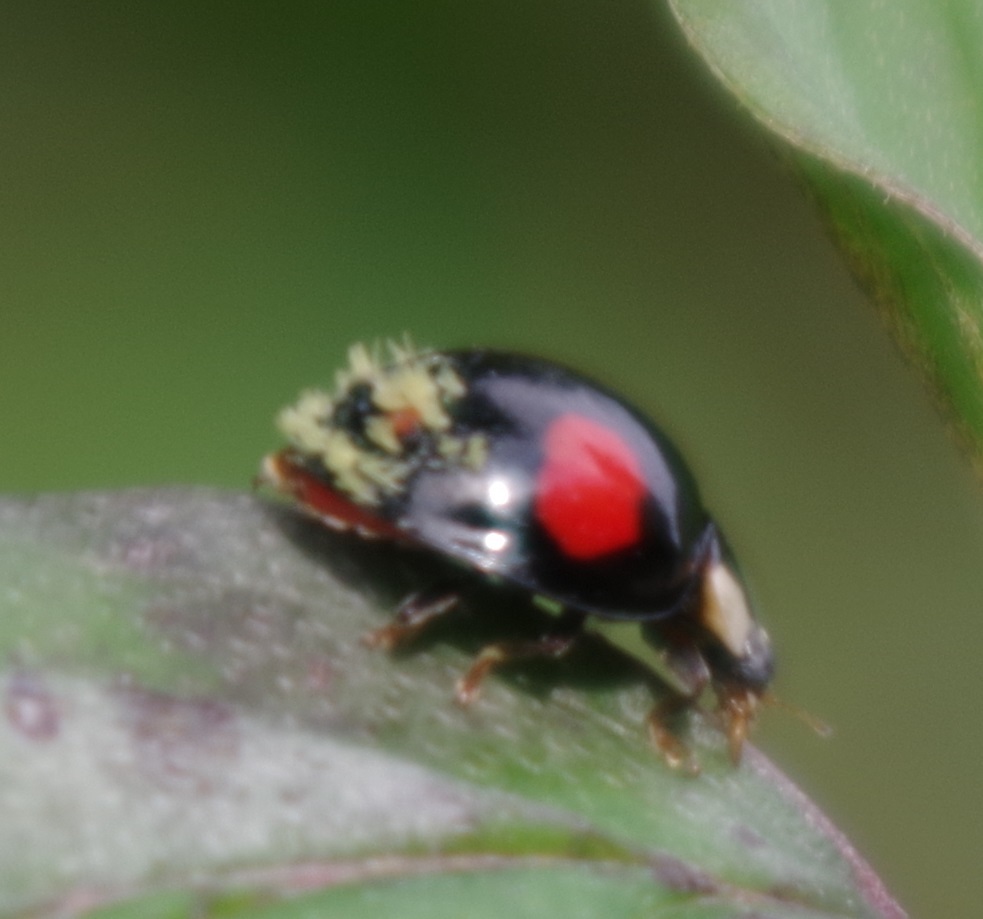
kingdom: Fungi
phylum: Ascomycota
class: Laboulbeniomycetes
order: Laboulbeniales
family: Laboulbeniaceae
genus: Hesperomyces
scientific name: Hesperomyces harmoniae
